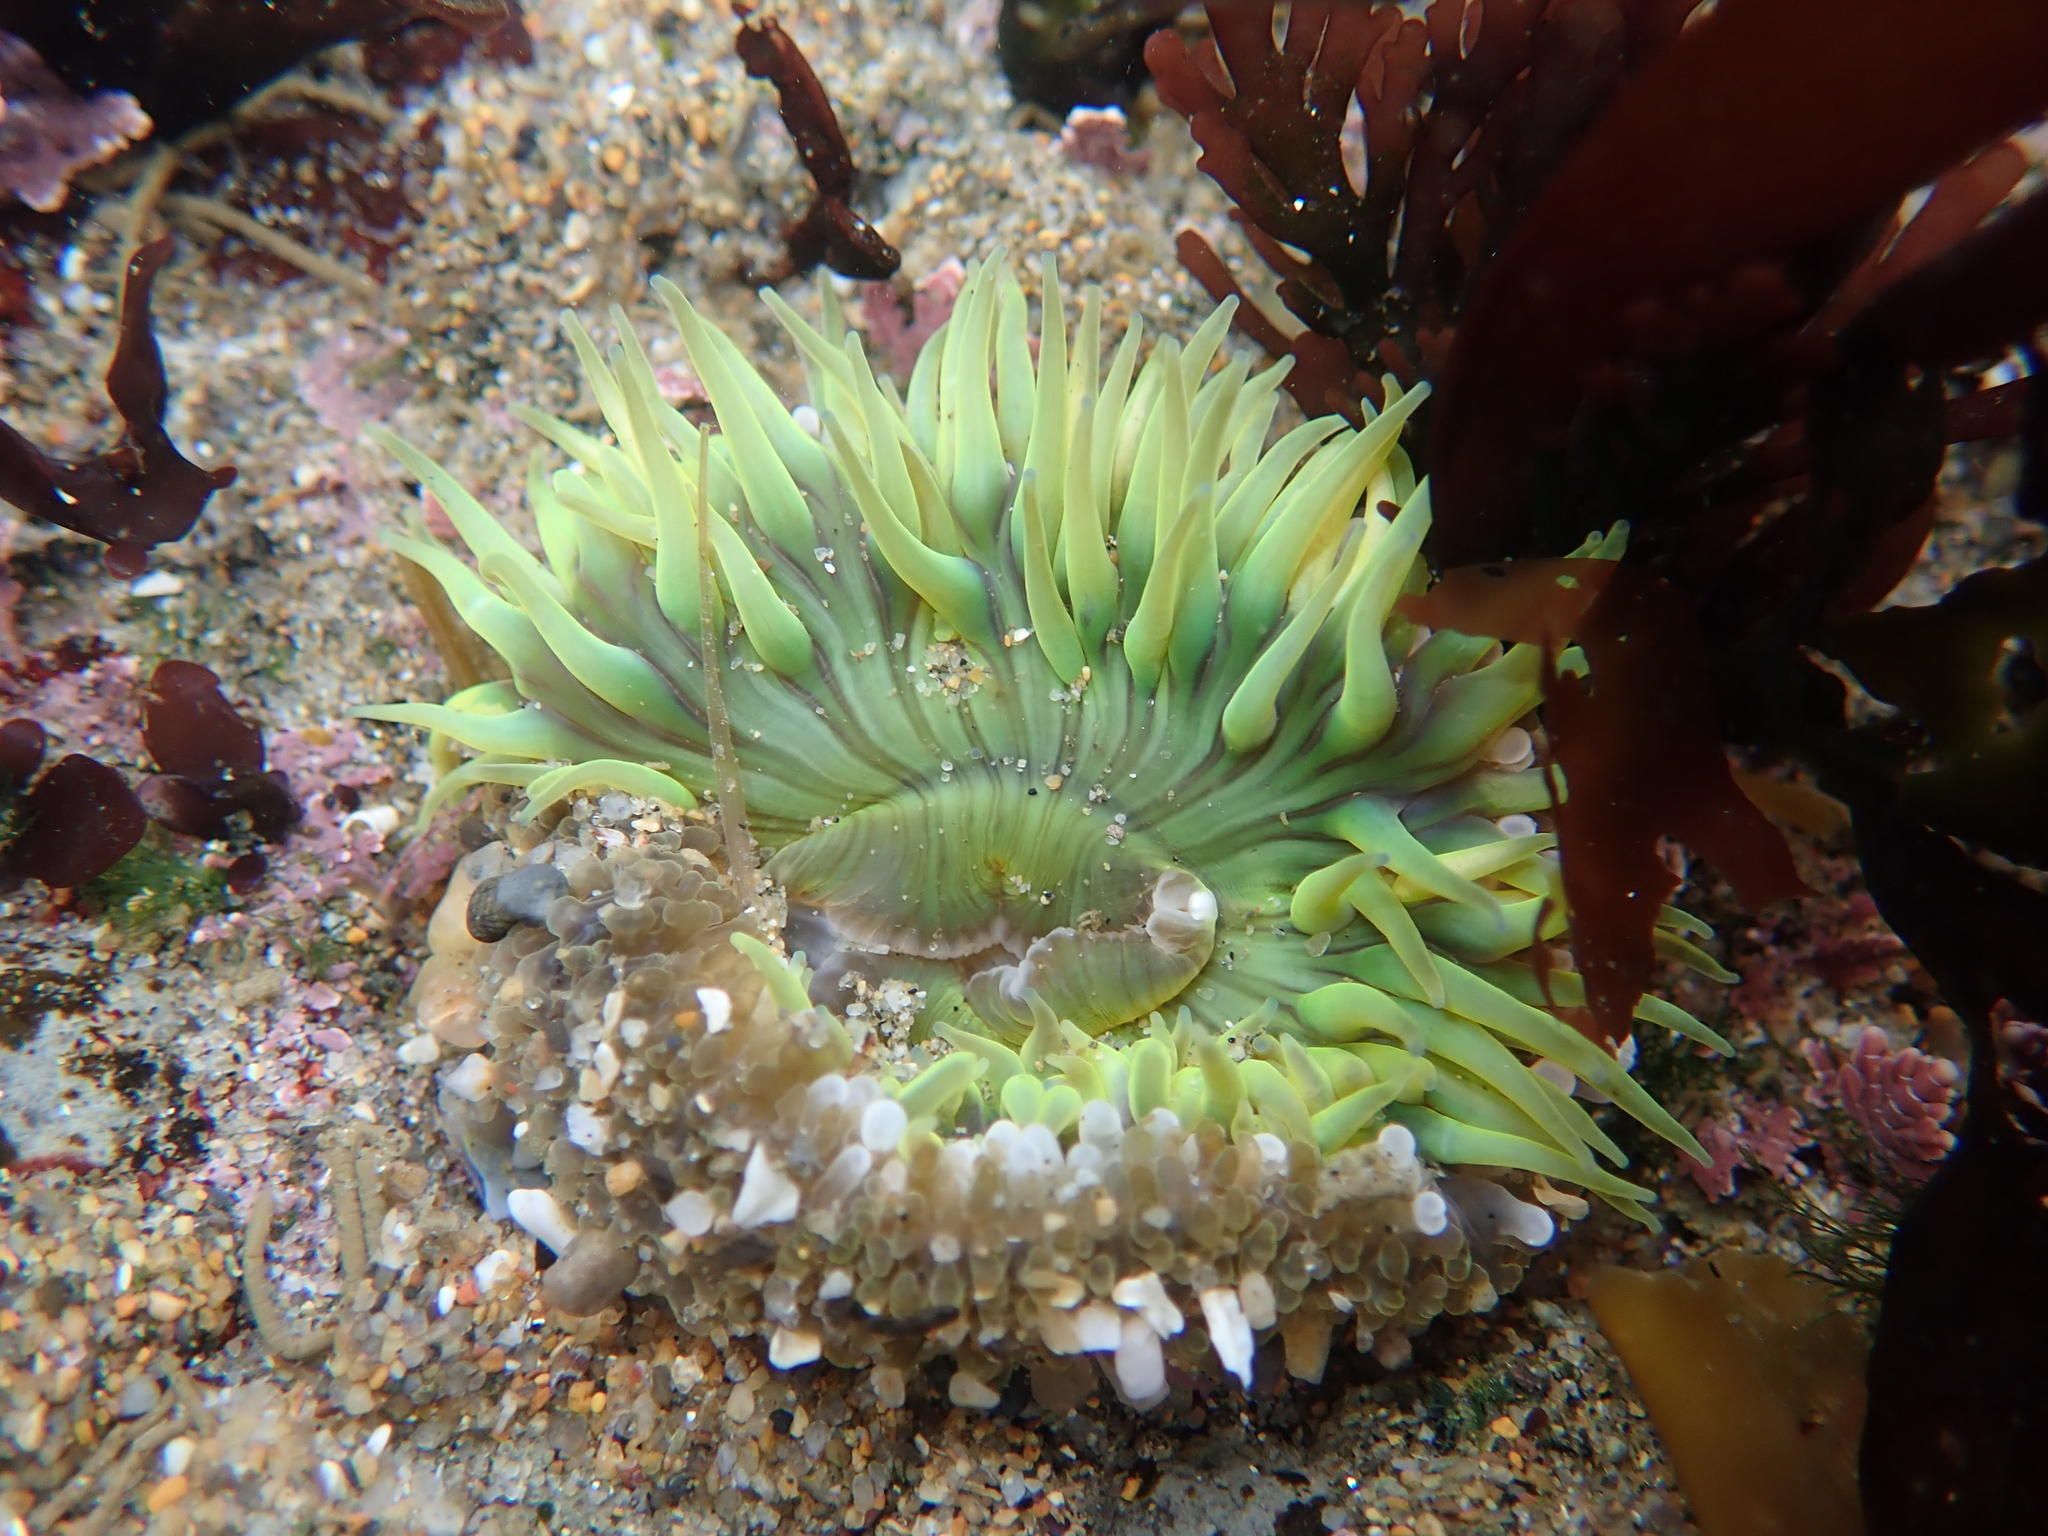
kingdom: Animalia
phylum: Cnidaria
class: Anthozoa
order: Actiniaria
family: Actiniidae
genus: Anthopleura
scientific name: Anthopleura sola
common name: Sun anemone
